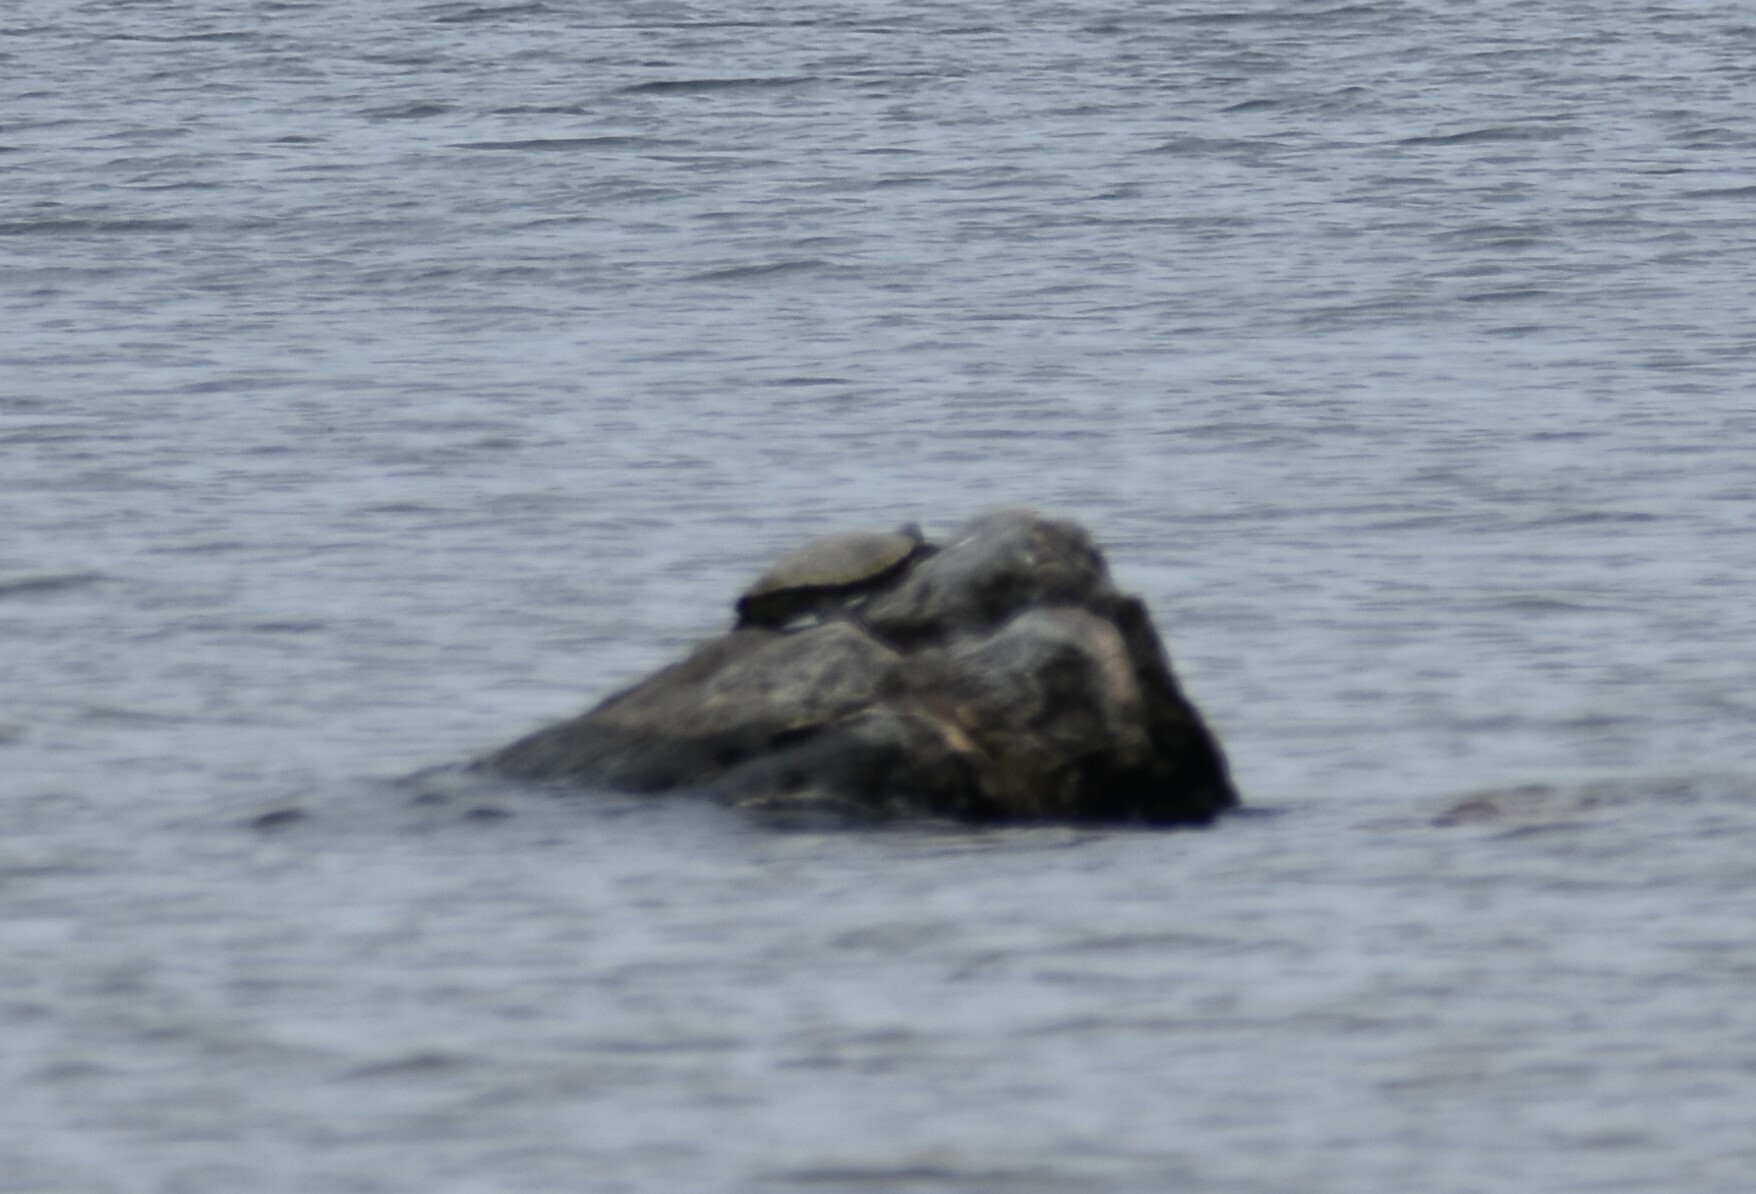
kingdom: Animalia
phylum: Chordata
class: Testudines
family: Emydidae
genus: Graptemys
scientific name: Graptemys geographica
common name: Common map turtle
